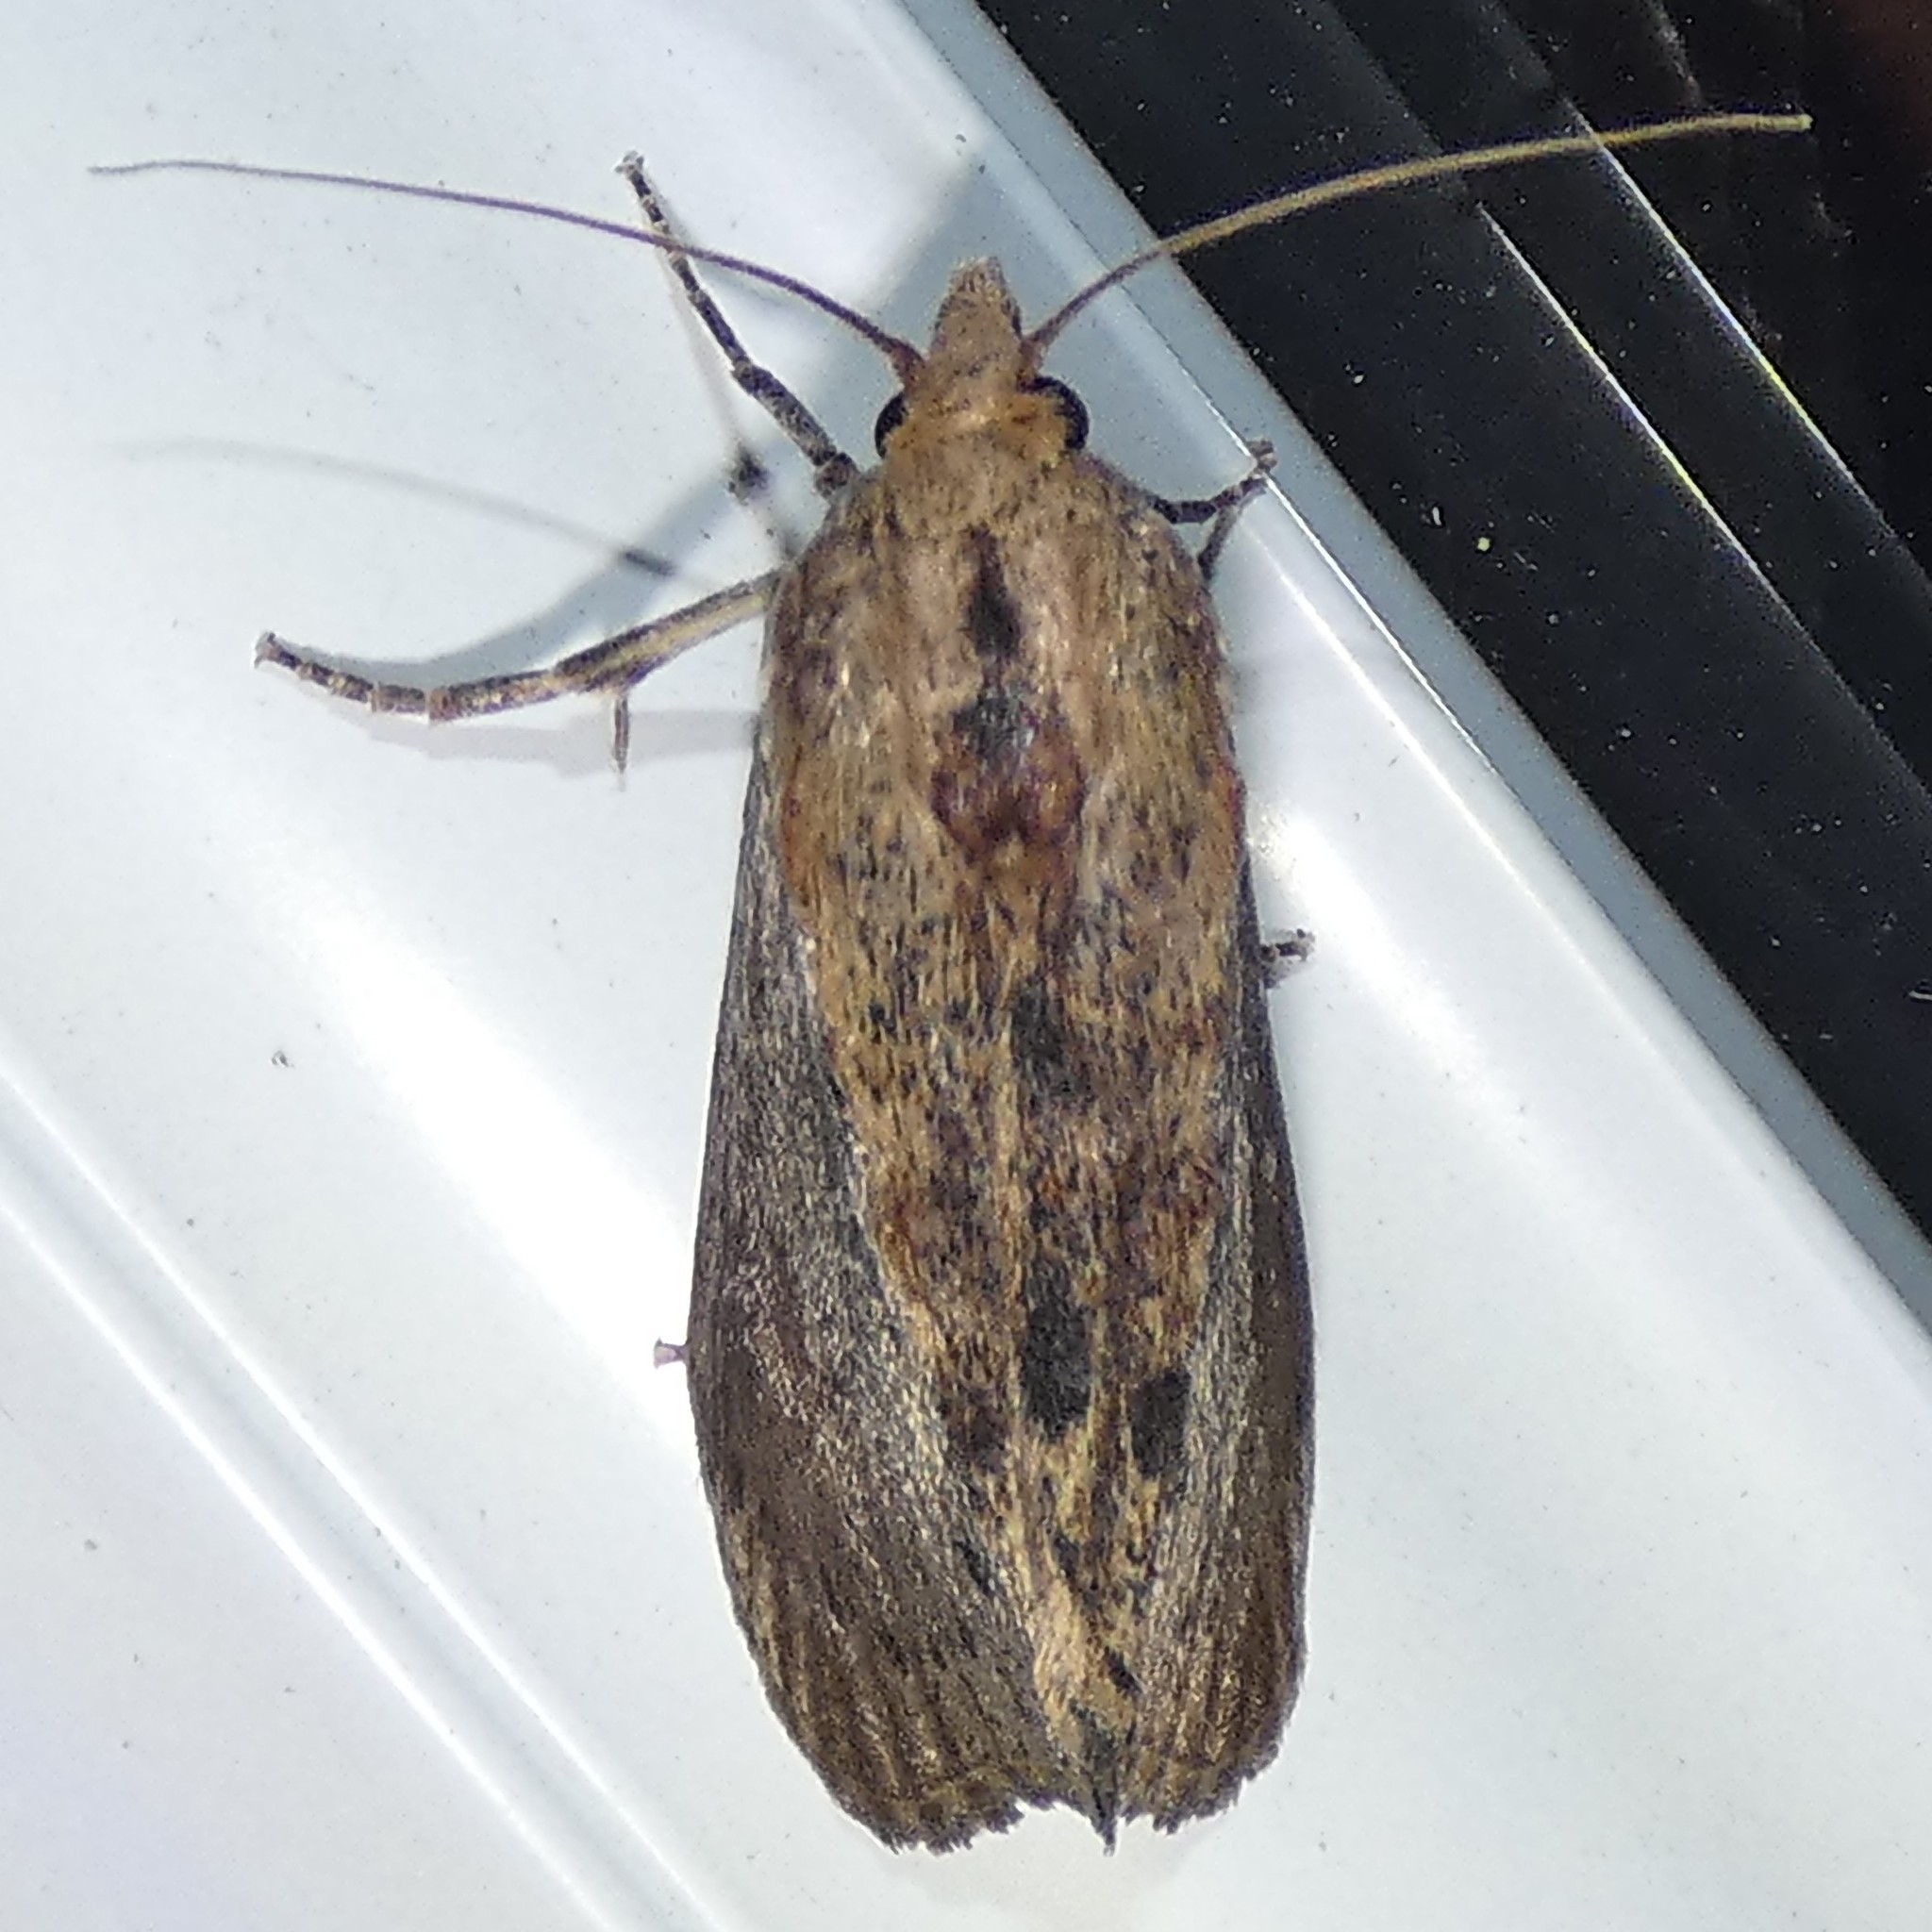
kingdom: Animalia
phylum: Arthropoda
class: Insecta
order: Lepidoptera
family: Pyralidae
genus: Galleria
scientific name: Galleria mellonella
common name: Greater wax moth
